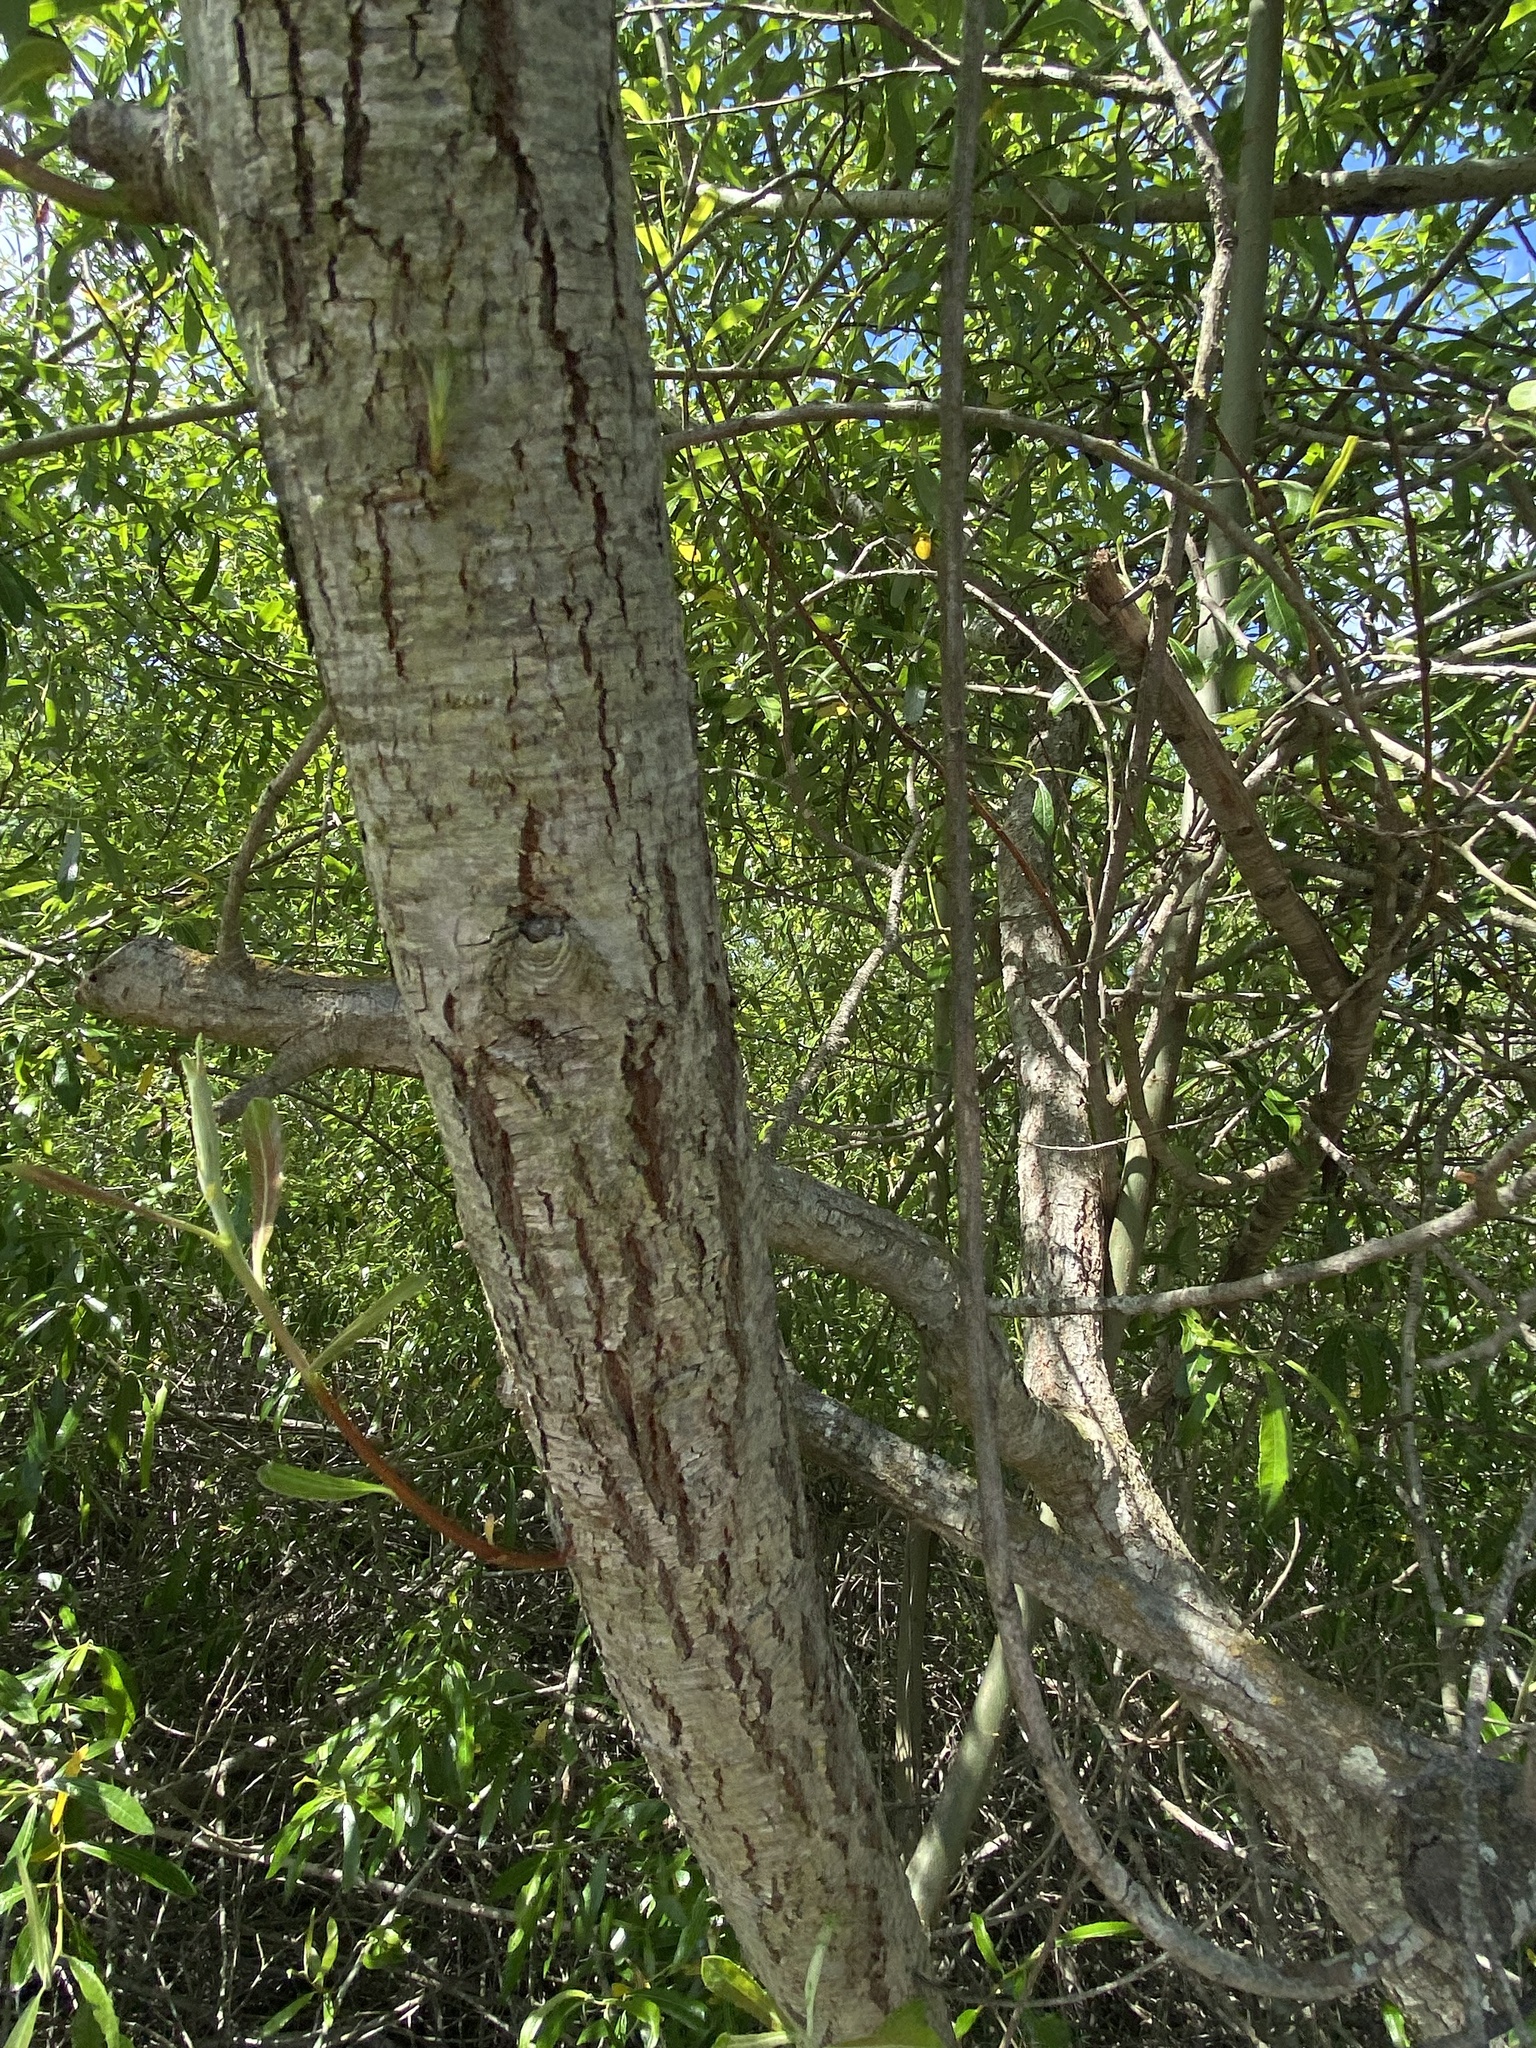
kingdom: Plantae
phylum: Tracheophyta
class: Magnoliopsida
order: Malpighiales
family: Salicaceae
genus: Salix
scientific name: Salix lasiolepis
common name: Arroyo willow
